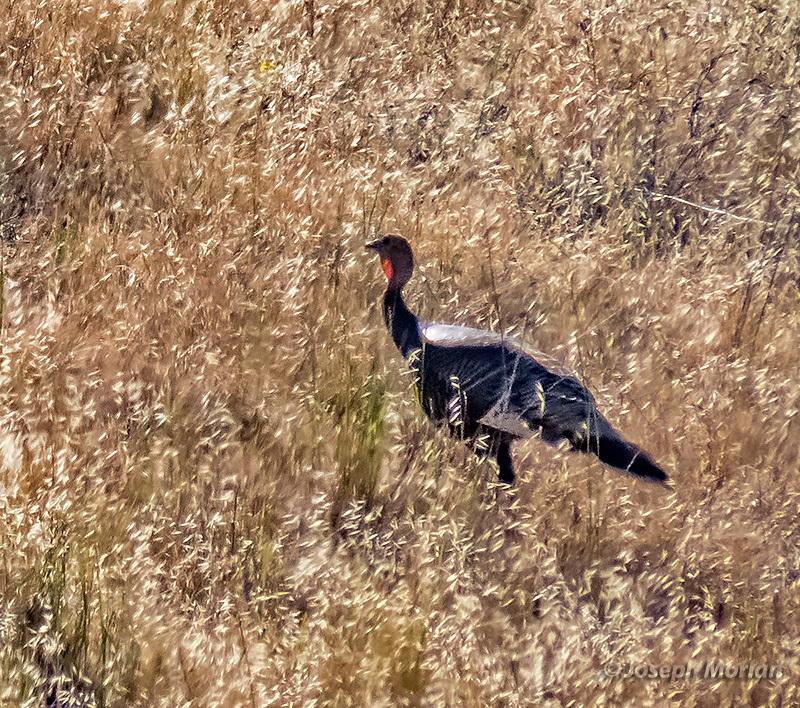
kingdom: Animalia
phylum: Chordata
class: Aves
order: Galliformes
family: Phasianidae
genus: Meleagris
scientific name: Meleagris gallopavo
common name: Wild turkey
